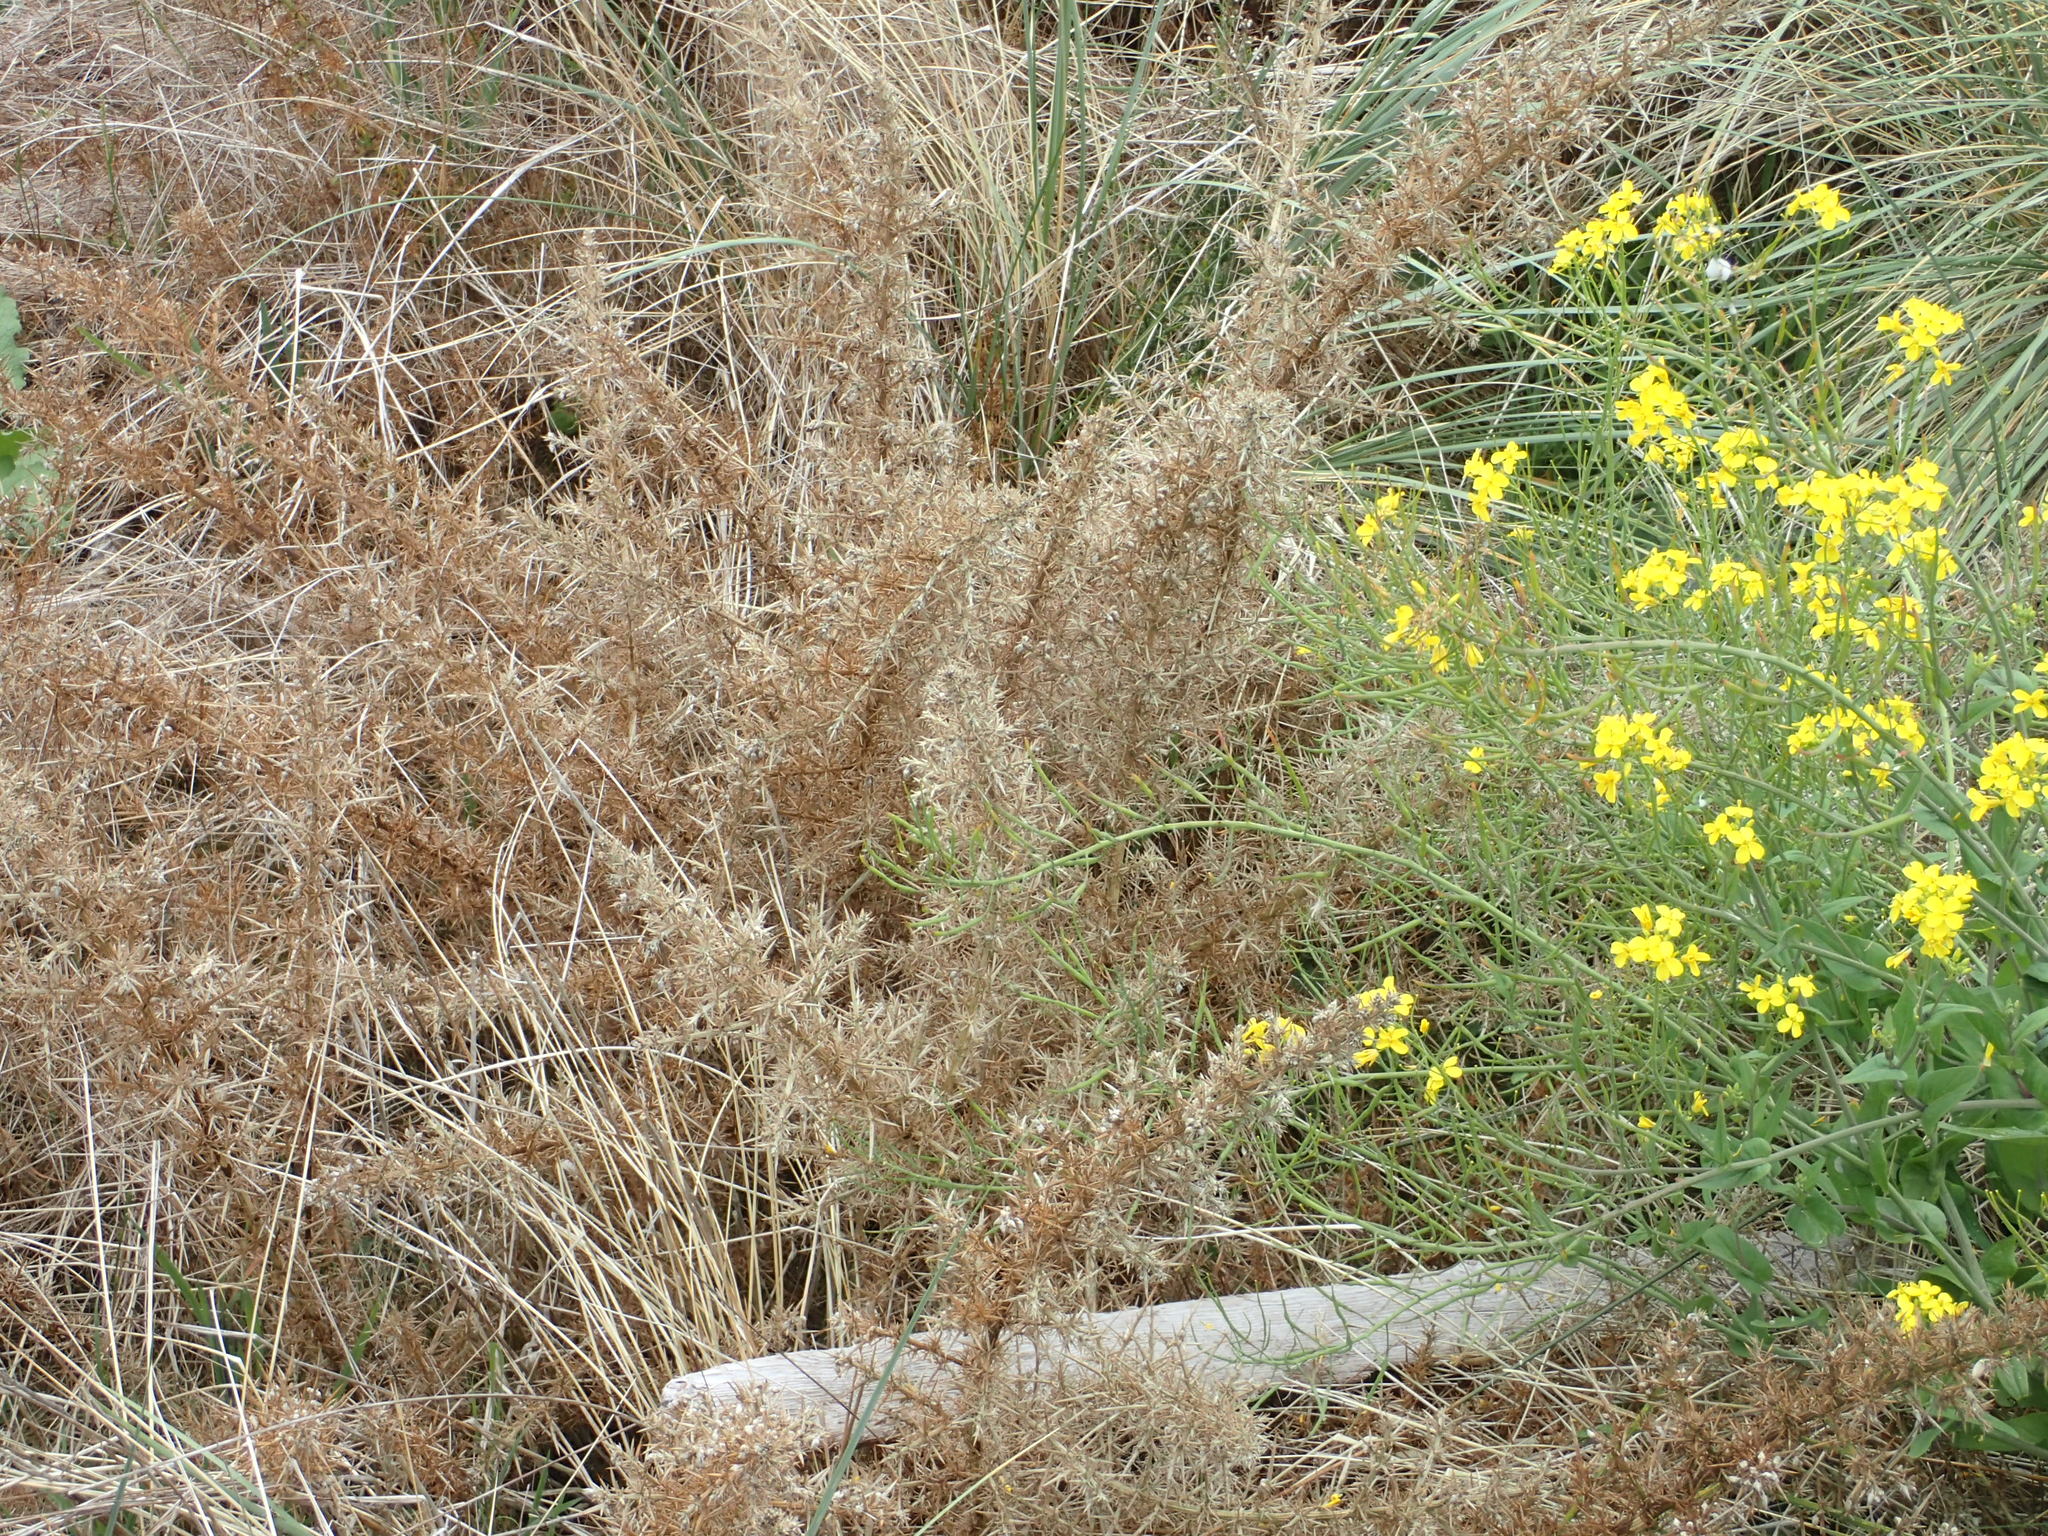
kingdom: Plantae
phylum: Tracheophyta
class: Magnoliopsida
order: Fabales
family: Fabaceae
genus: Ulex
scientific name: Ulex europaeus
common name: Common gorse
